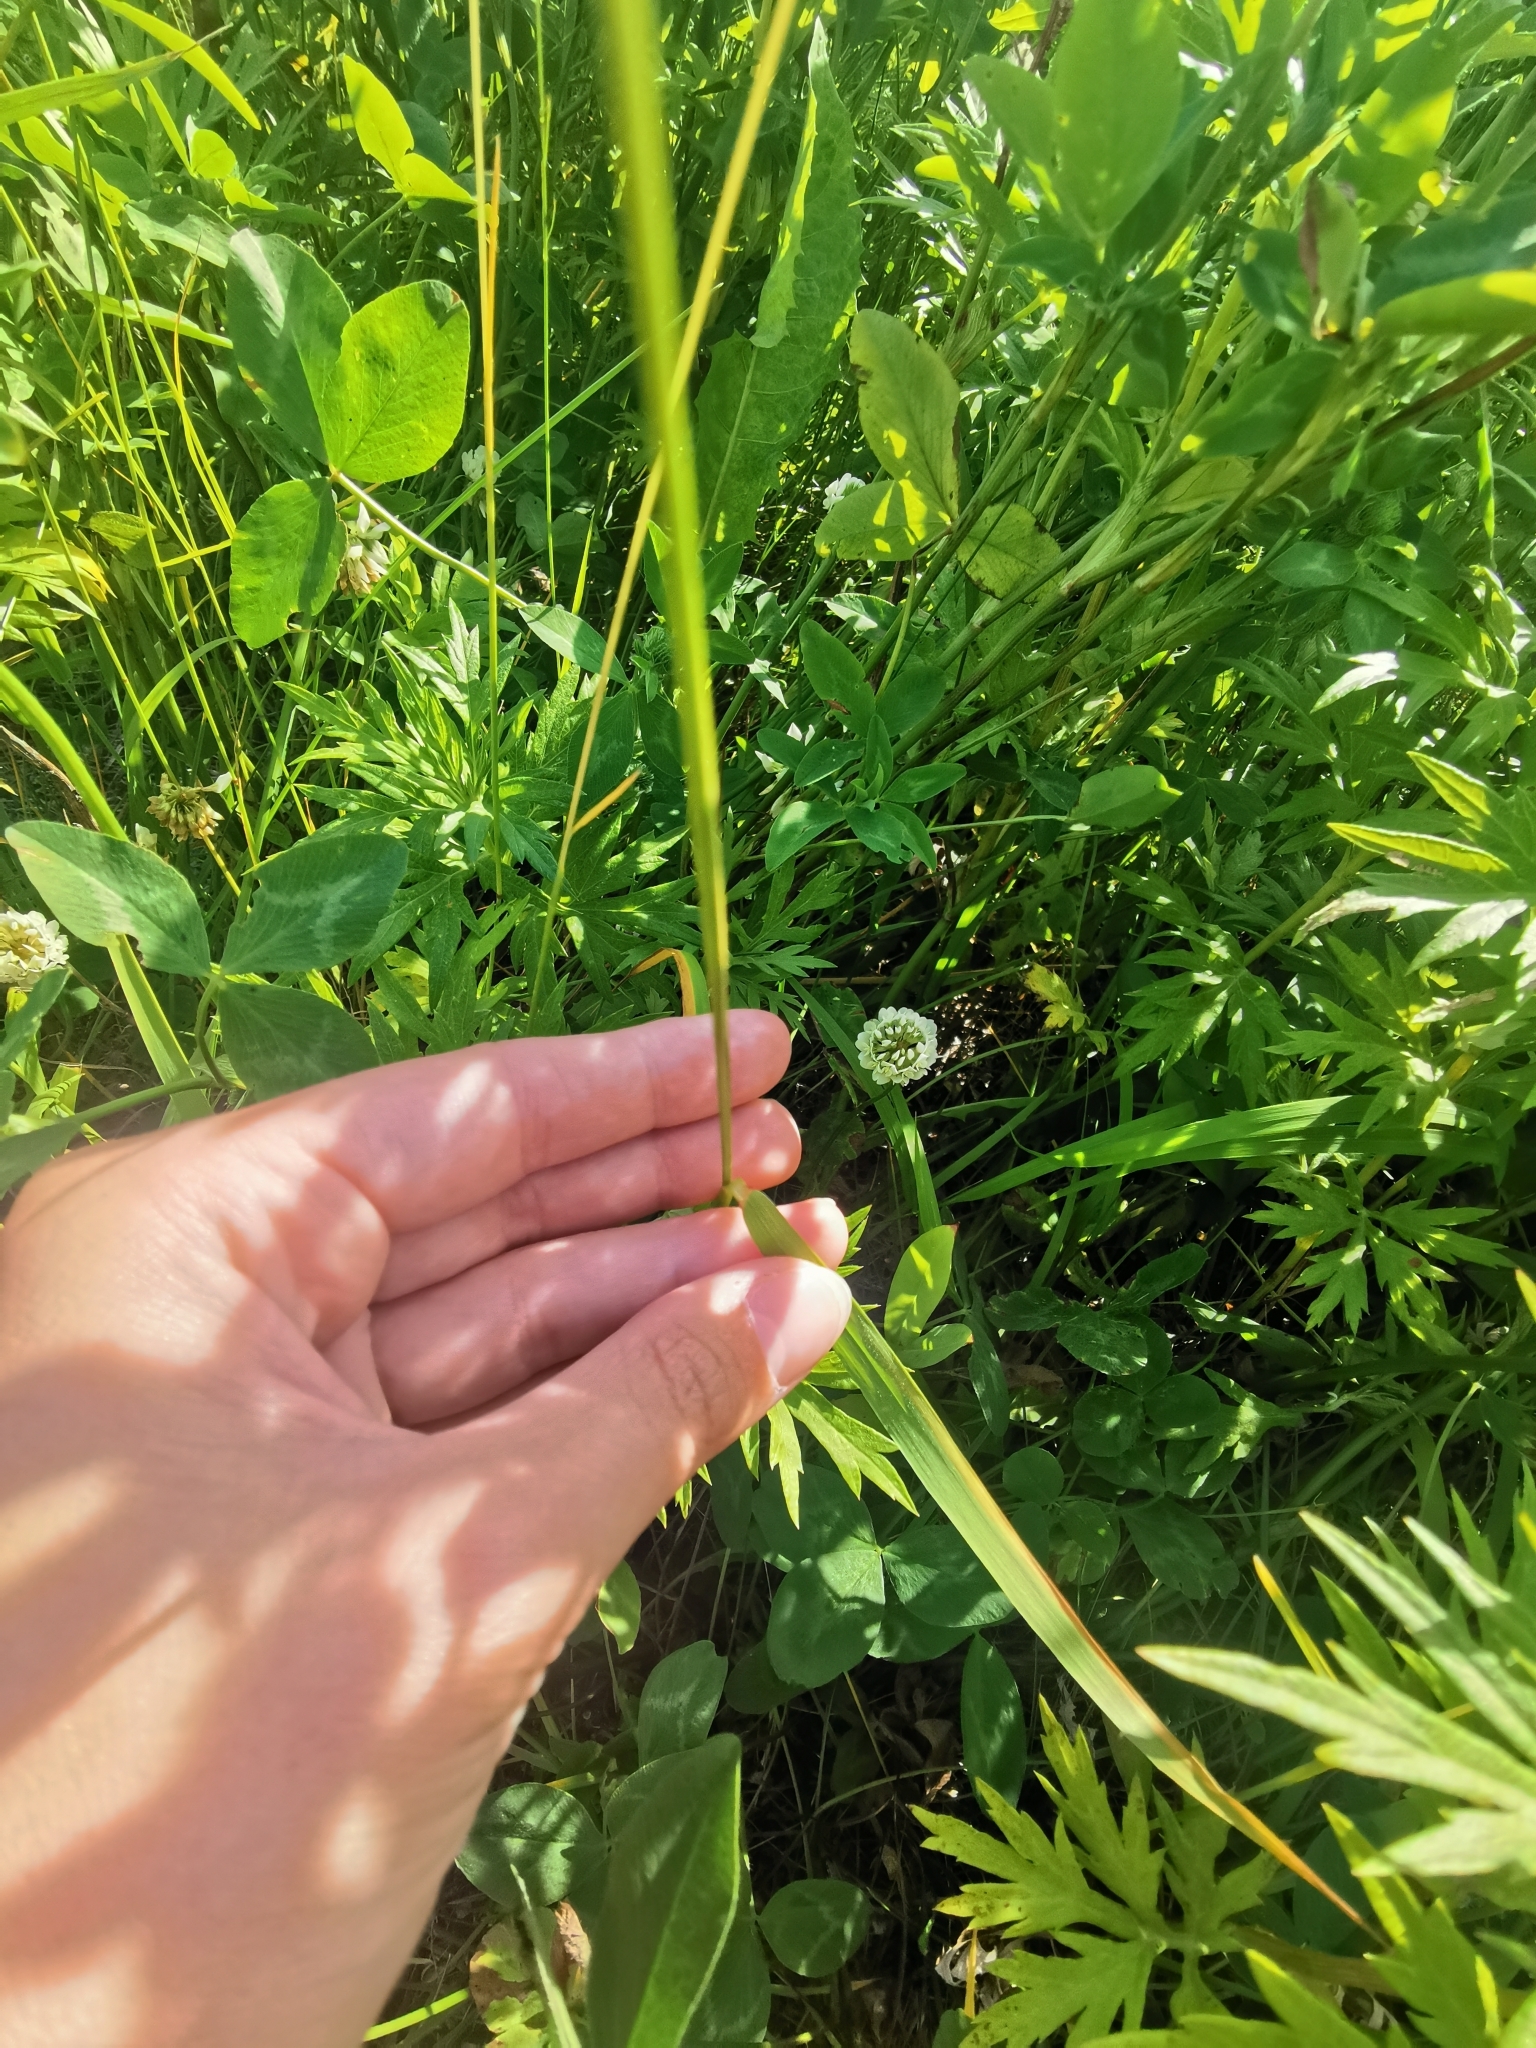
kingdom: Plantae
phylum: Tracheophyta
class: Liliopsida
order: Poales
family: Poaceae
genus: Elymus
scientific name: Elymus sibiricus
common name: Siberian wildrye
